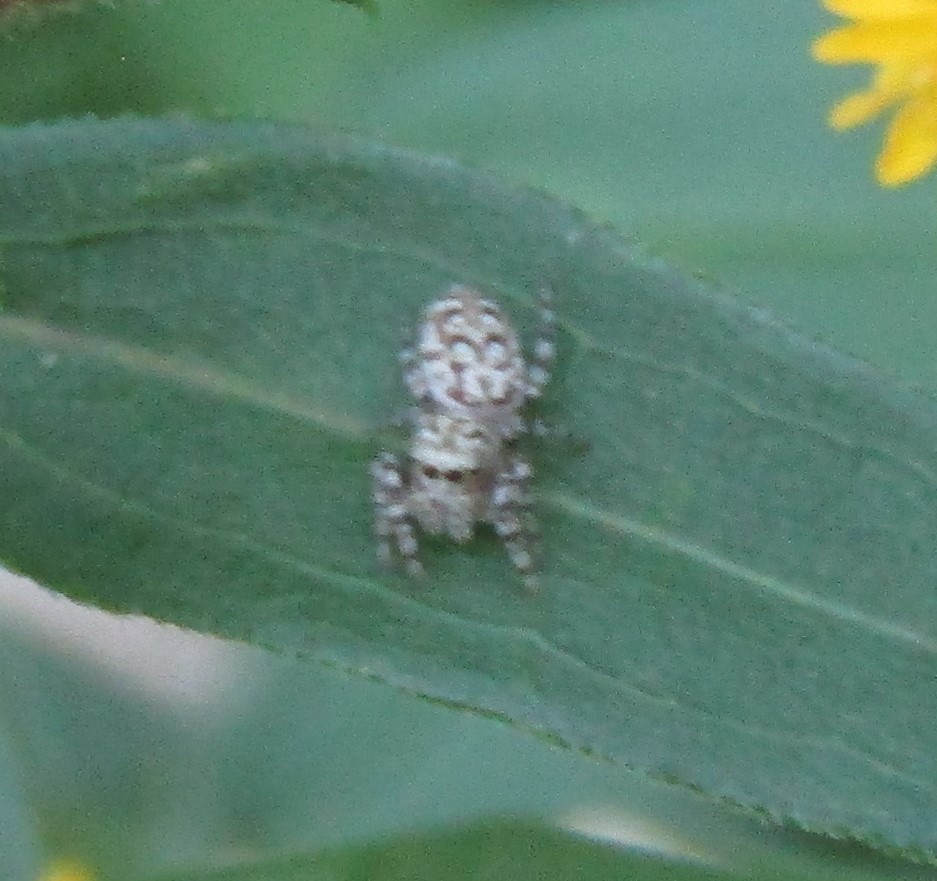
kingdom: Animalia
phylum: Arthropoda
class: Arachnida
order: Araneae
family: Salticidae
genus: Pelegrina
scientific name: Pelegrina galathea
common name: Jumping spiders
